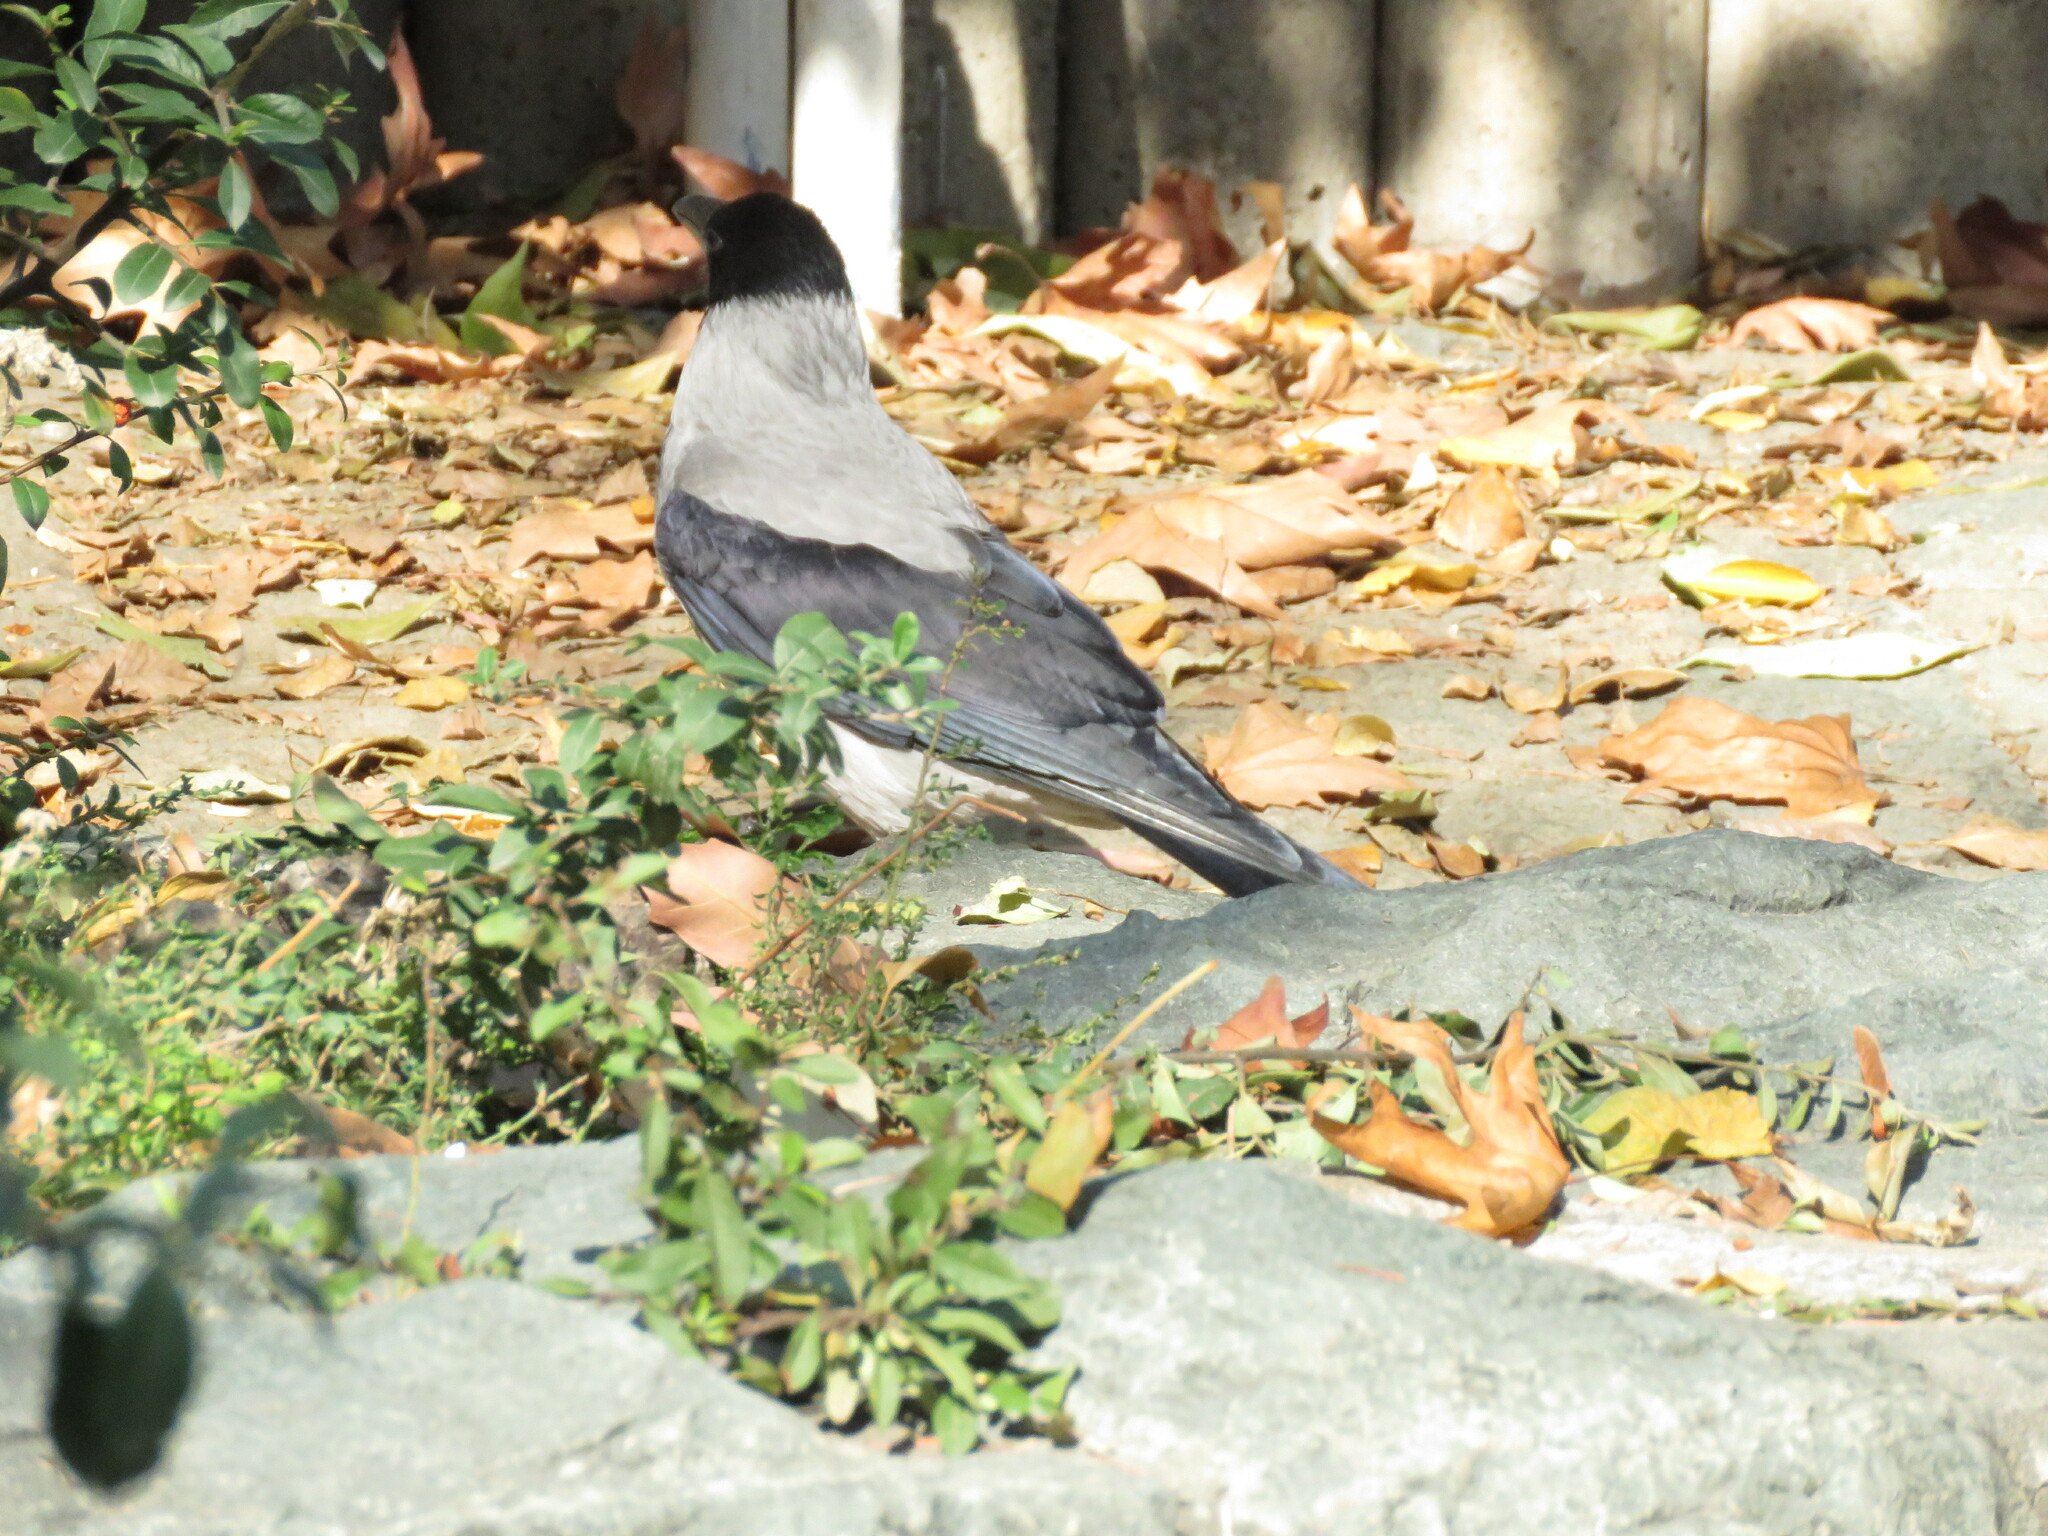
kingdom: Animalia
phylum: Chordata
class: Aves
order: Passeriformes
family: Corvidae
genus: Corvus
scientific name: Corvus cornix
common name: Hooded crow
